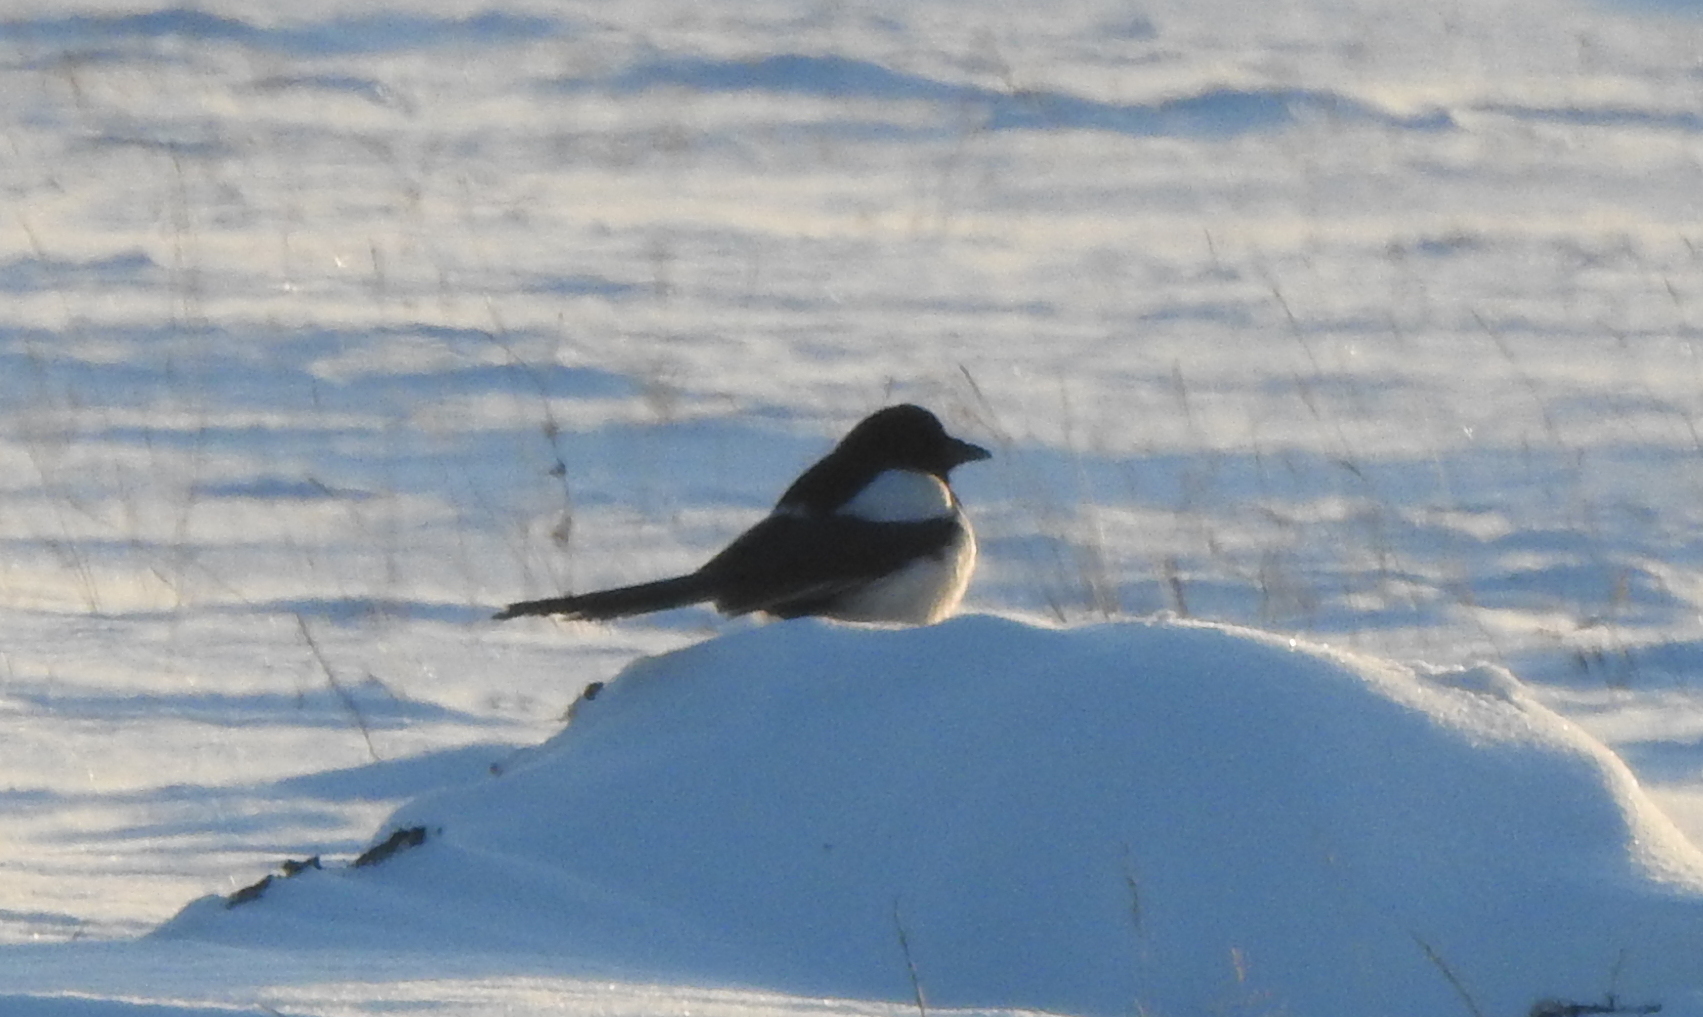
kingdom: Animalia
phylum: Chordata
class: Aves
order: Passeriformes
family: Corvidae
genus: Pica
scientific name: Pica pica
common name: Eurasian magpie
